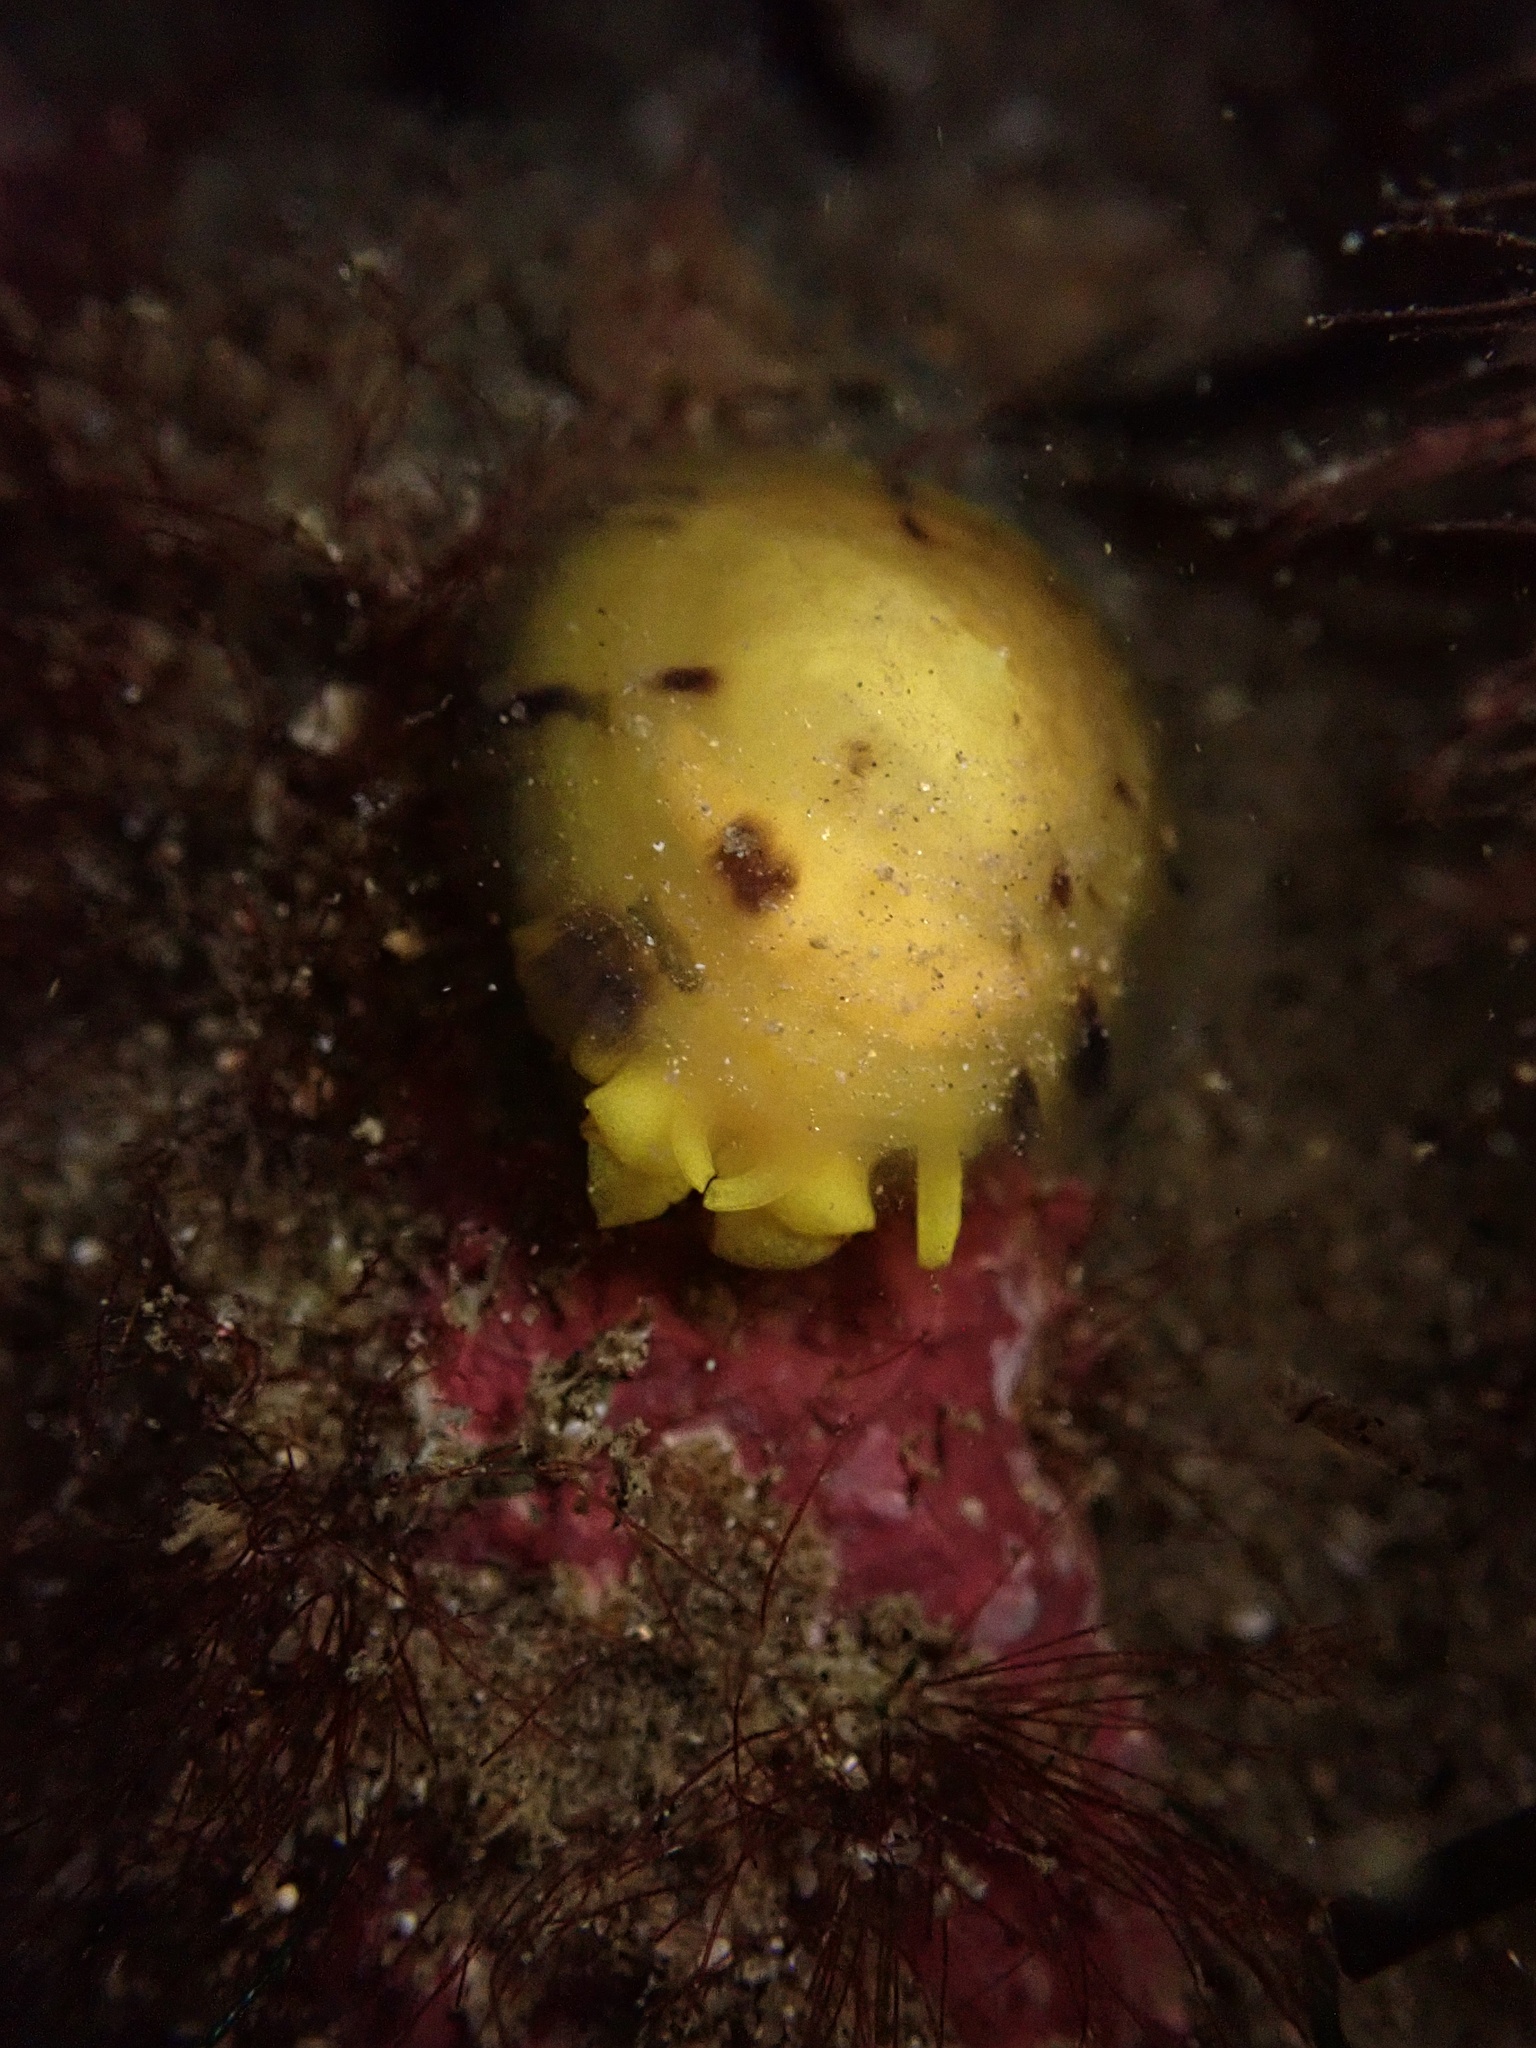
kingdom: Animalia
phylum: Mollusca
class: Gastropoda
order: Umbraculida
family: Tylodinidae
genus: Tylodina
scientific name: Tylodina fungina
